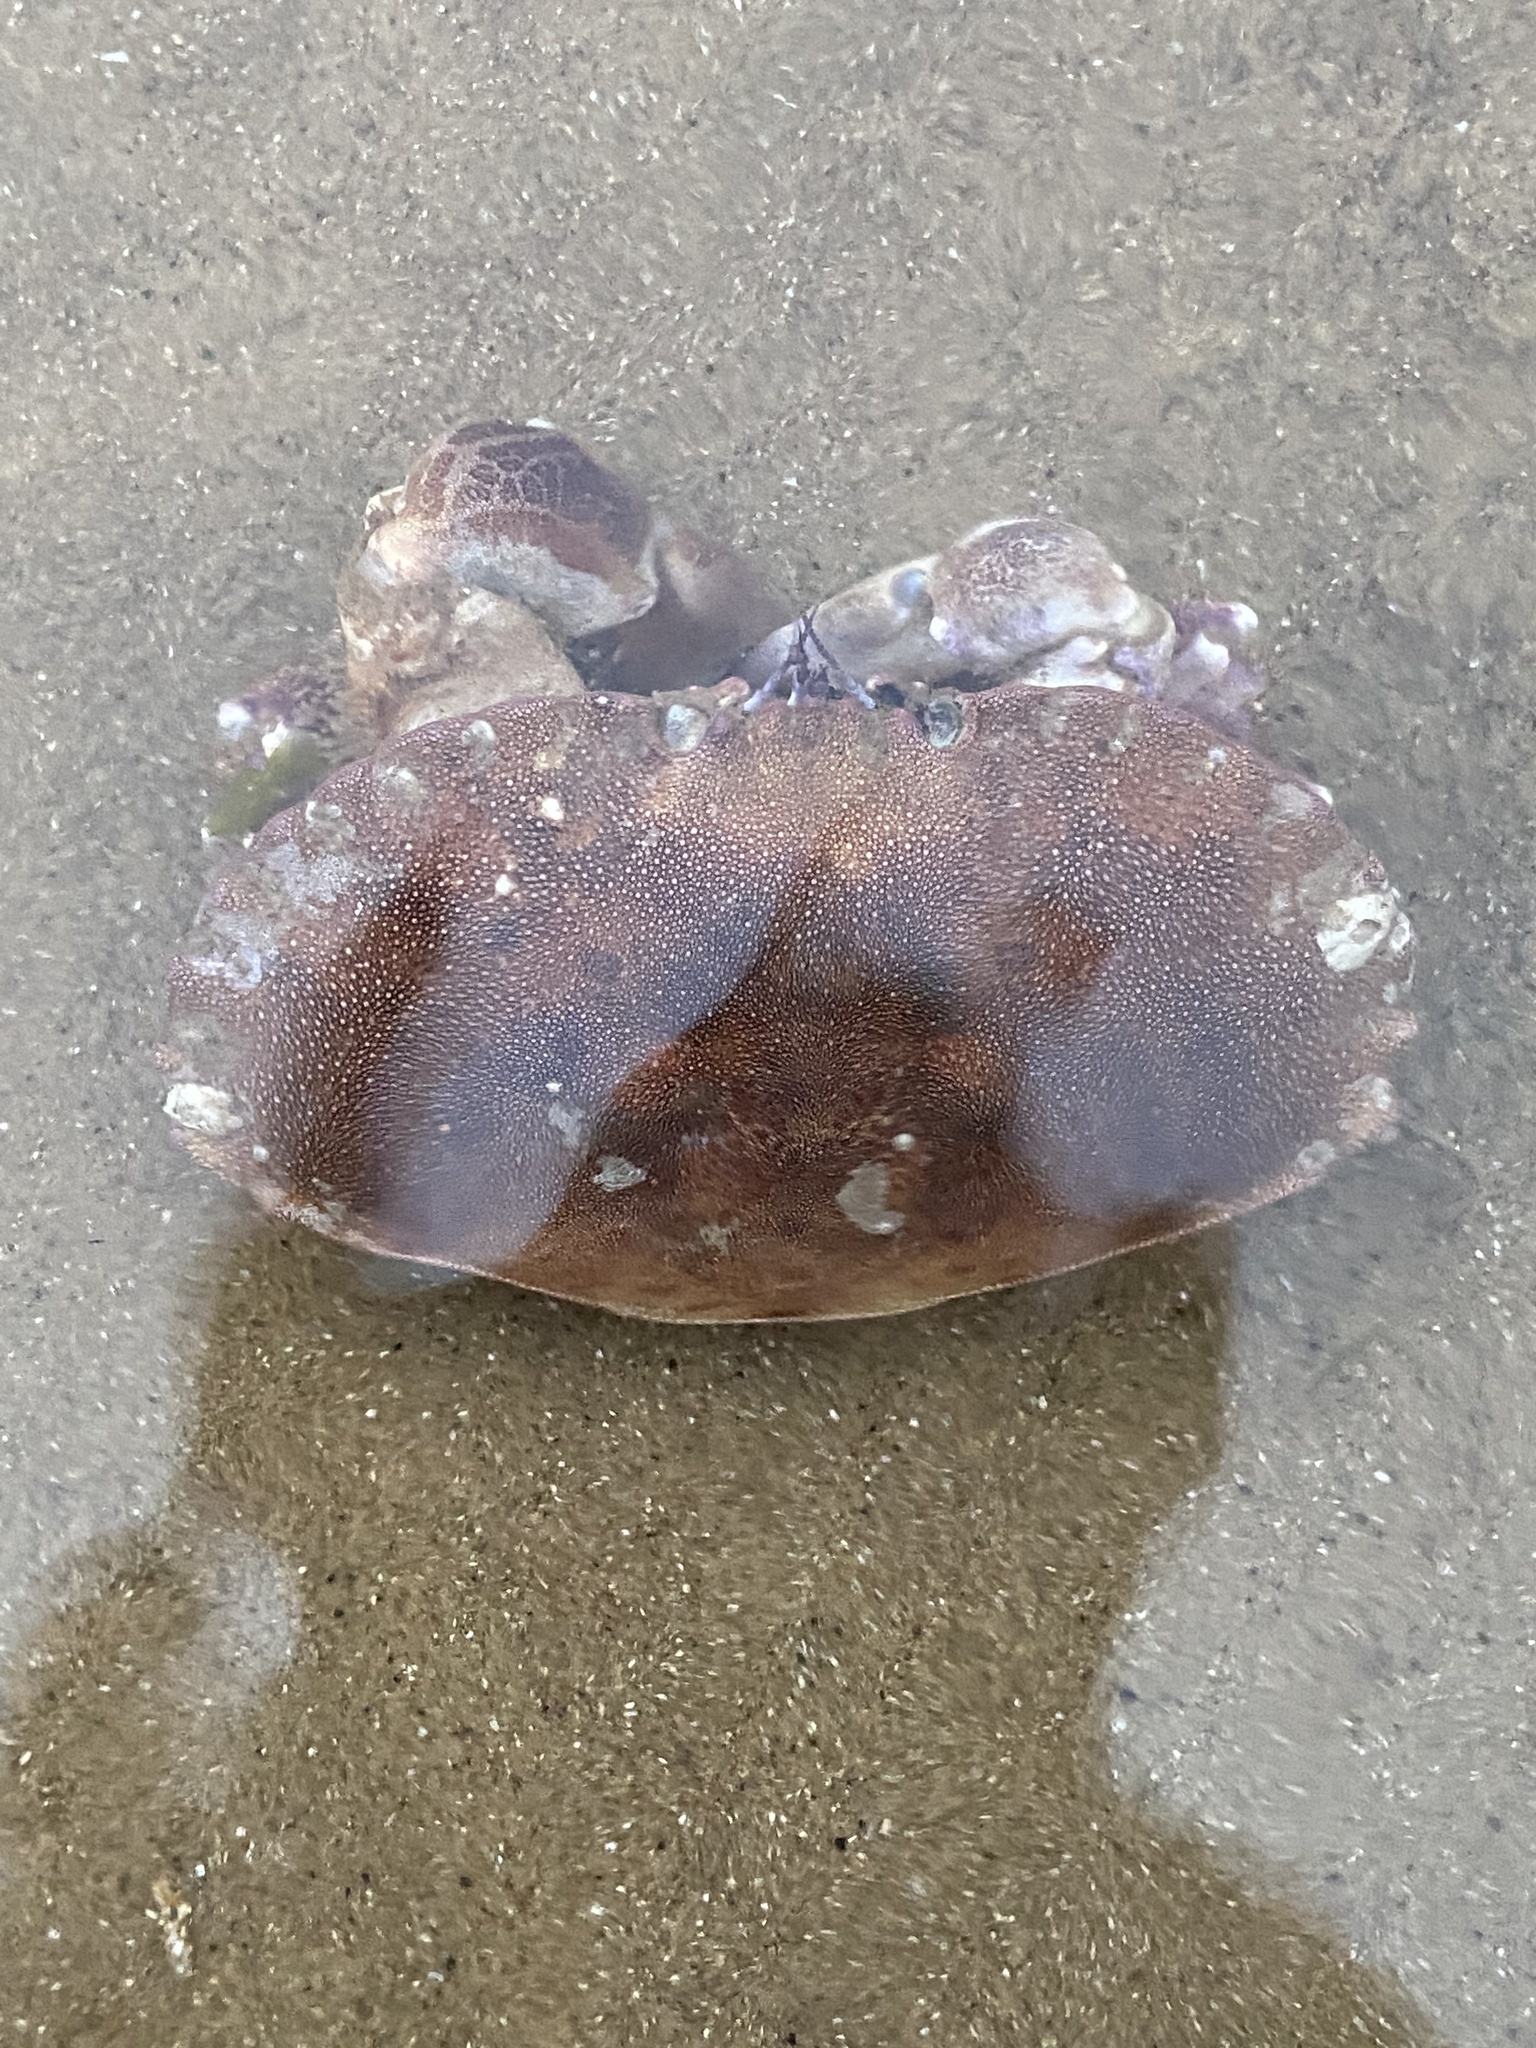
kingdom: Animalia
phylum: Arthropoda
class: Malacostraca
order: Decapoda
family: Cancridae
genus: Cancer
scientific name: Cancer pagurus
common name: Edible crab
